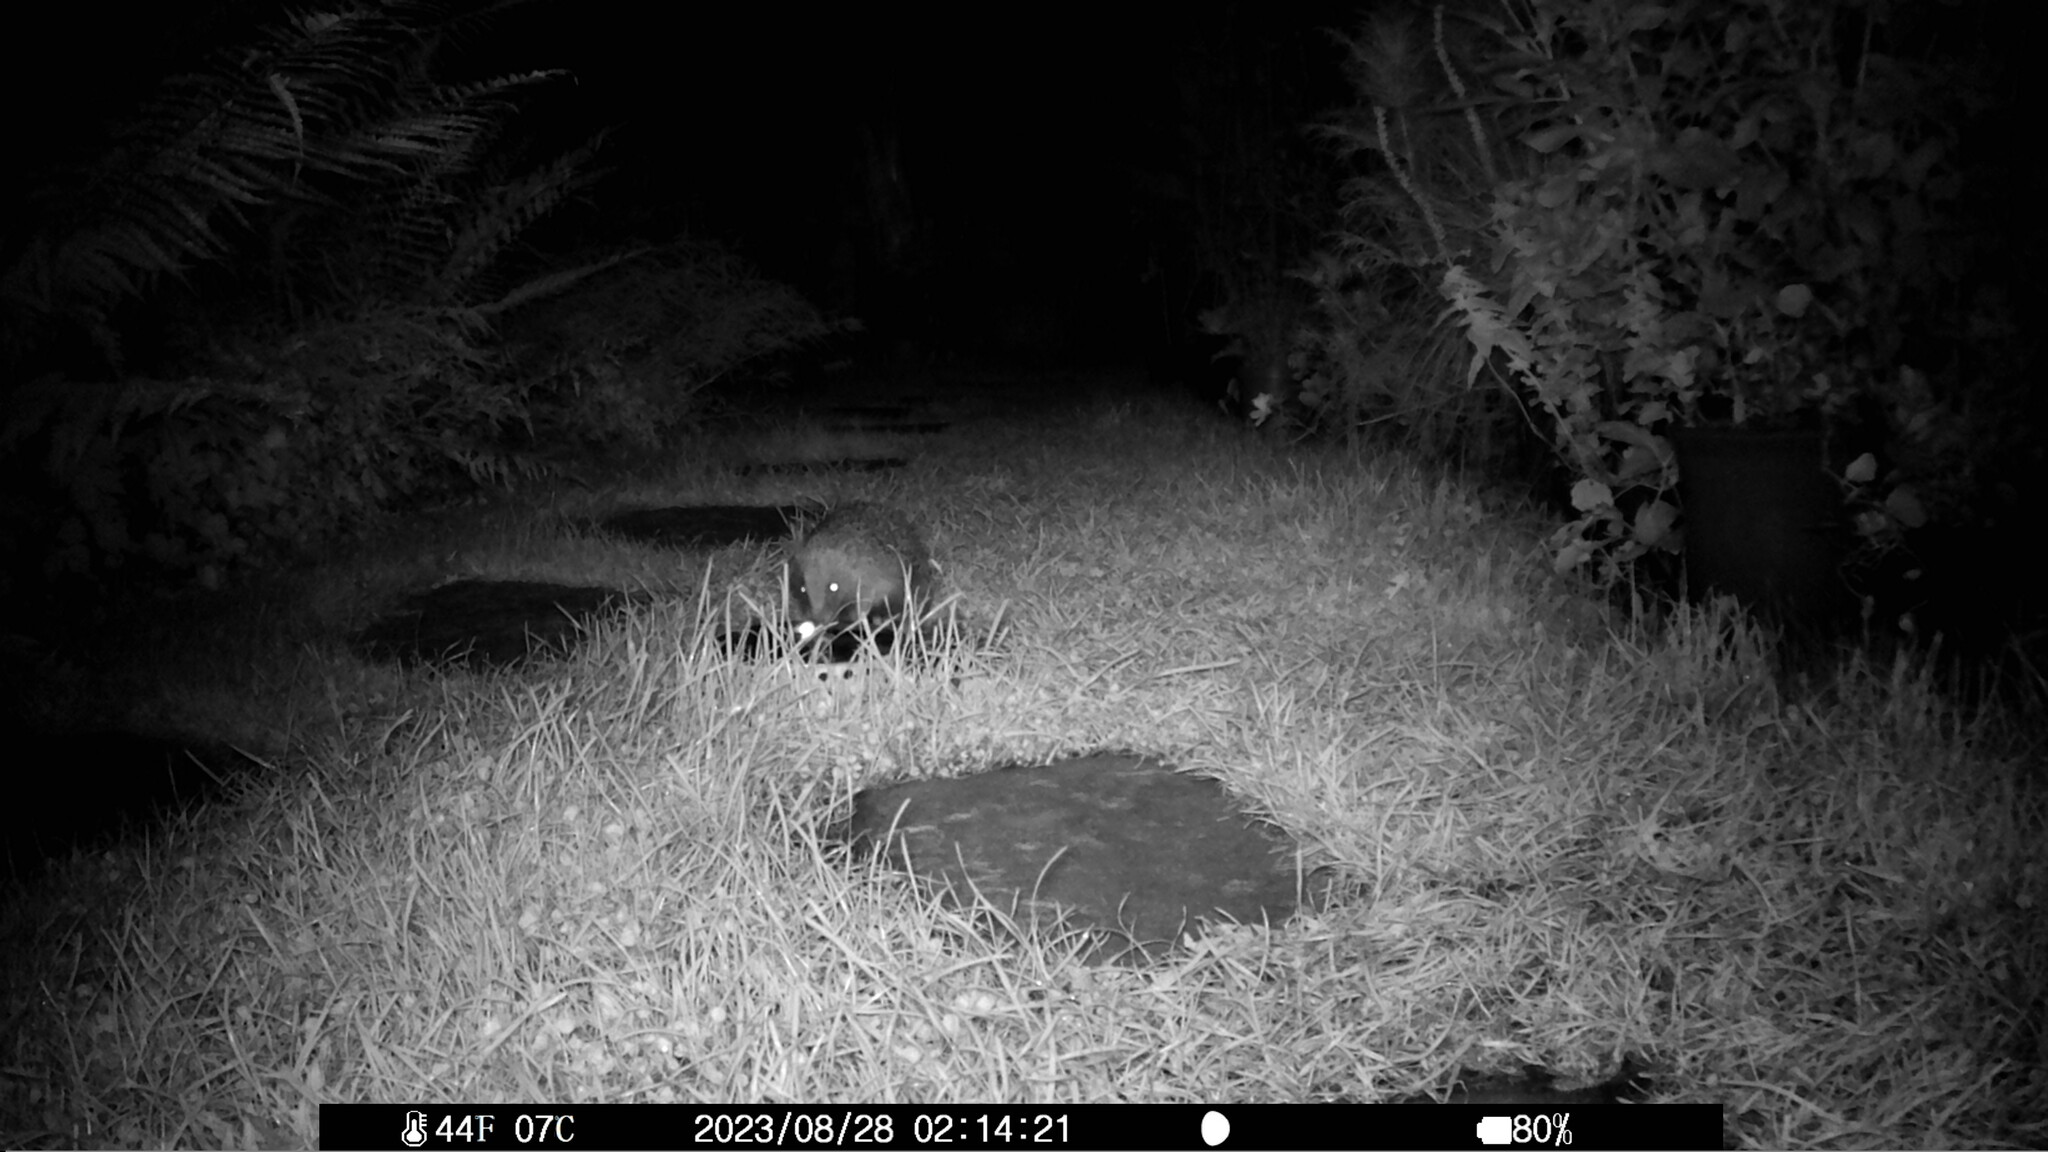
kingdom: Animalia
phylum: Chordata
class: Mammalia
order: Erinaceomorpha
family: Erinaceidae
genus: Erinaceus
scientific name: Erinaceus europaeus
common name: West european hedgehog
